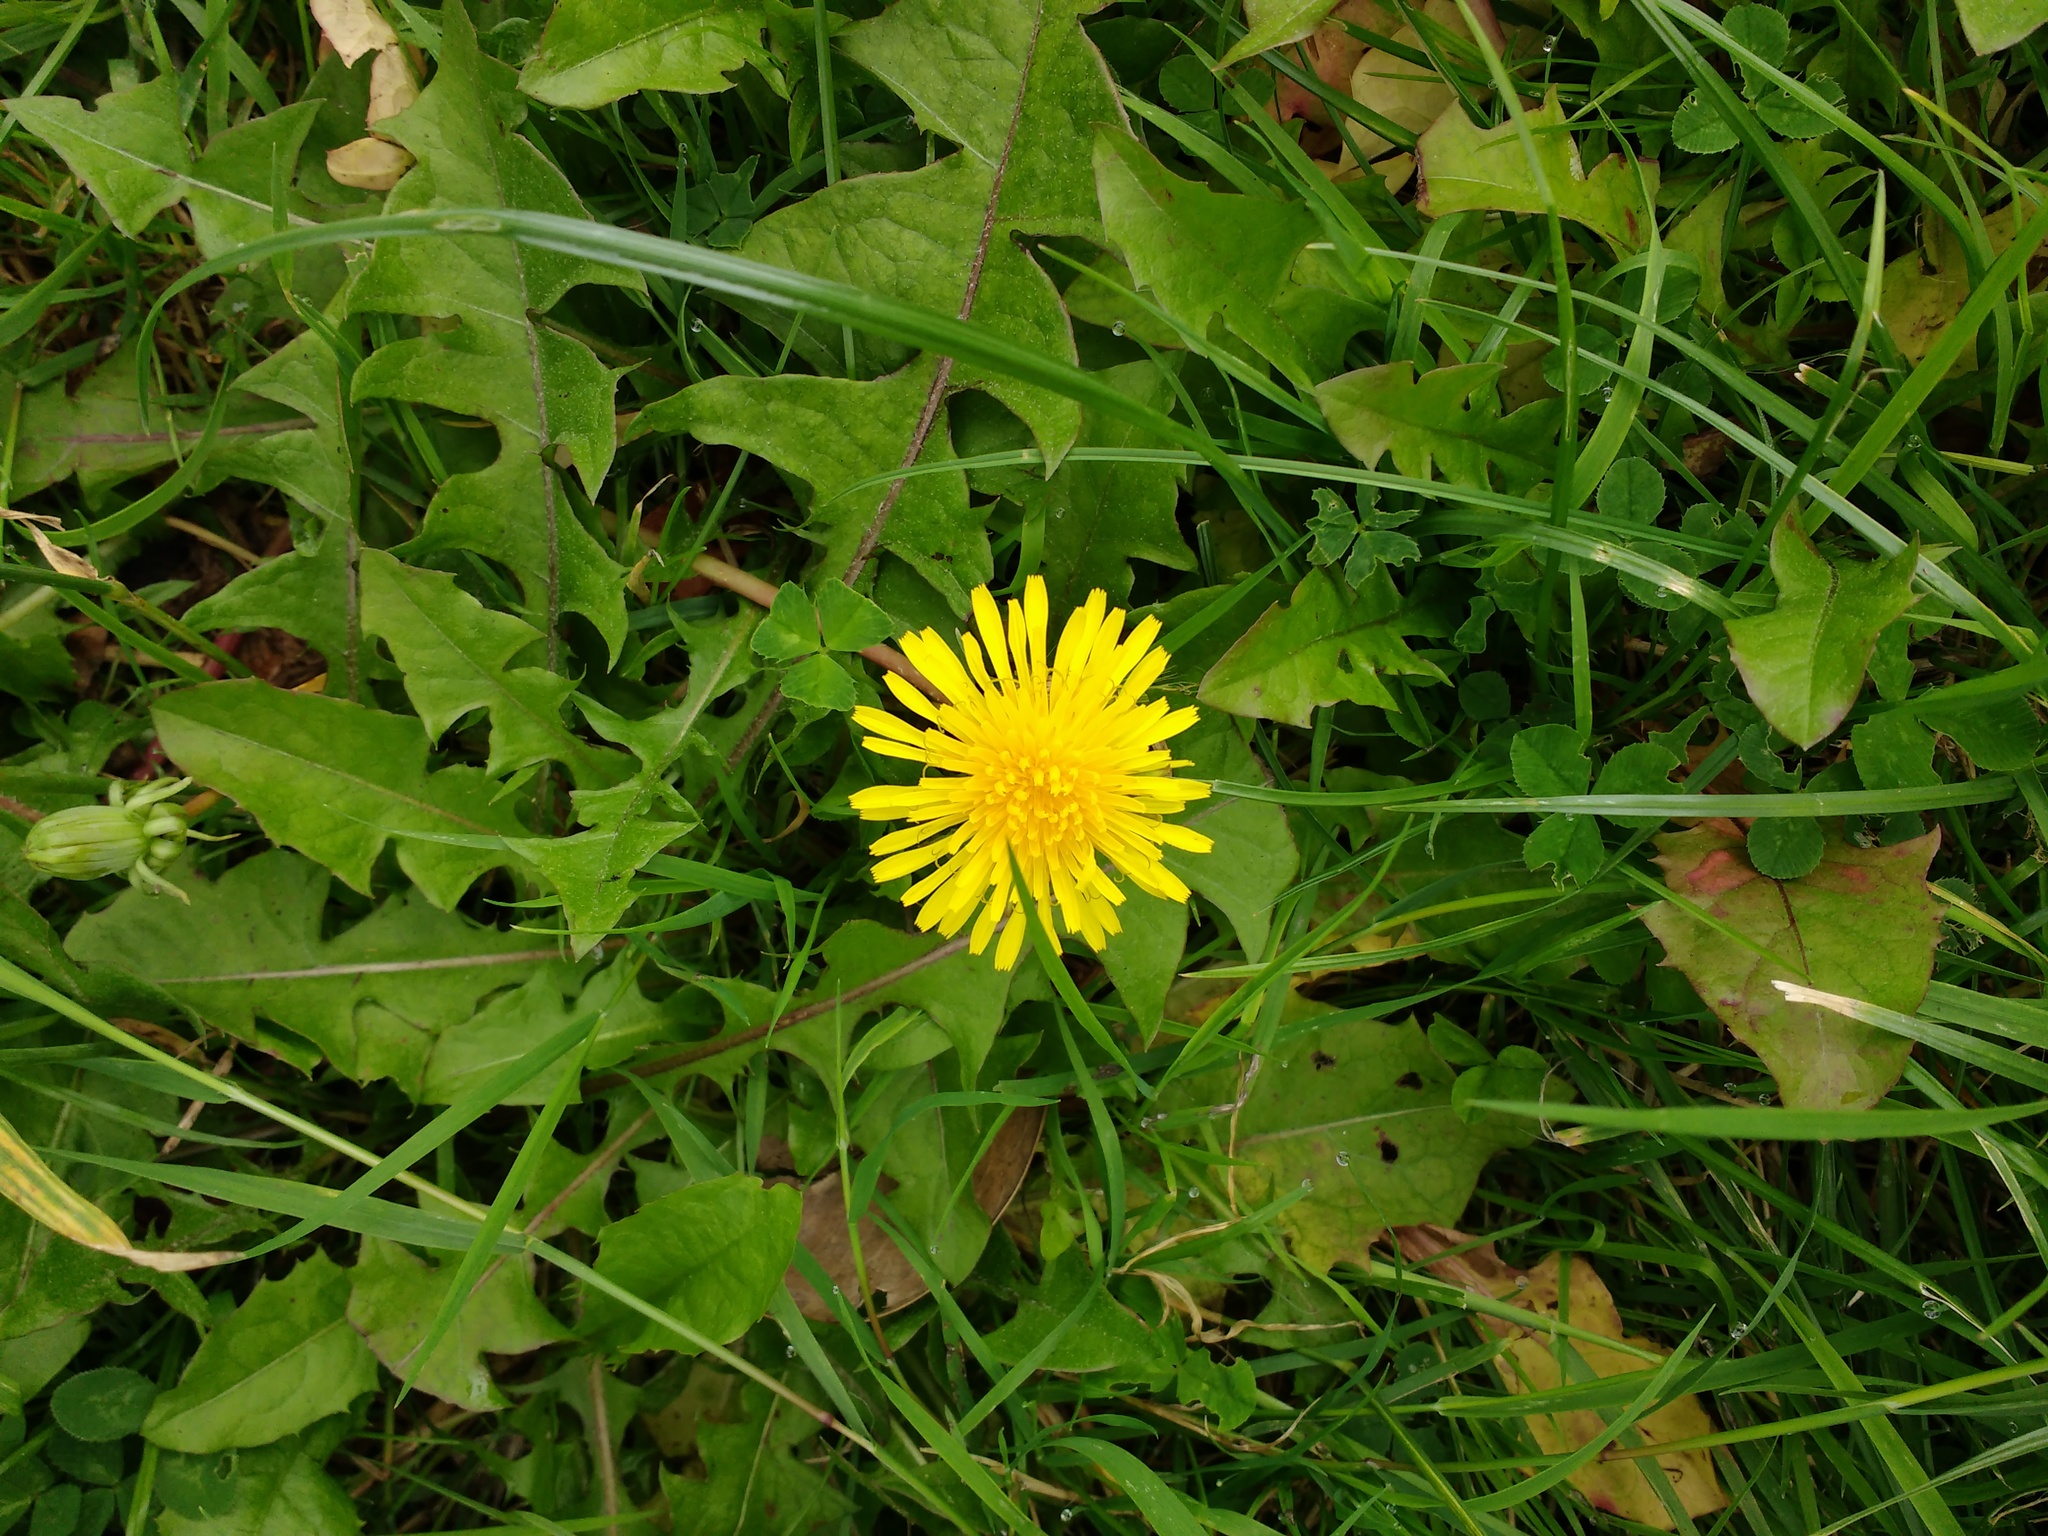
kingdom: Plantae
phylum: Tracheophyta
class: Magnoliopsida
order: Asterales
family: Asteraceae
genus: Taraxacum
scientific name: Taraxacum officinale
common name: Common dandelion
